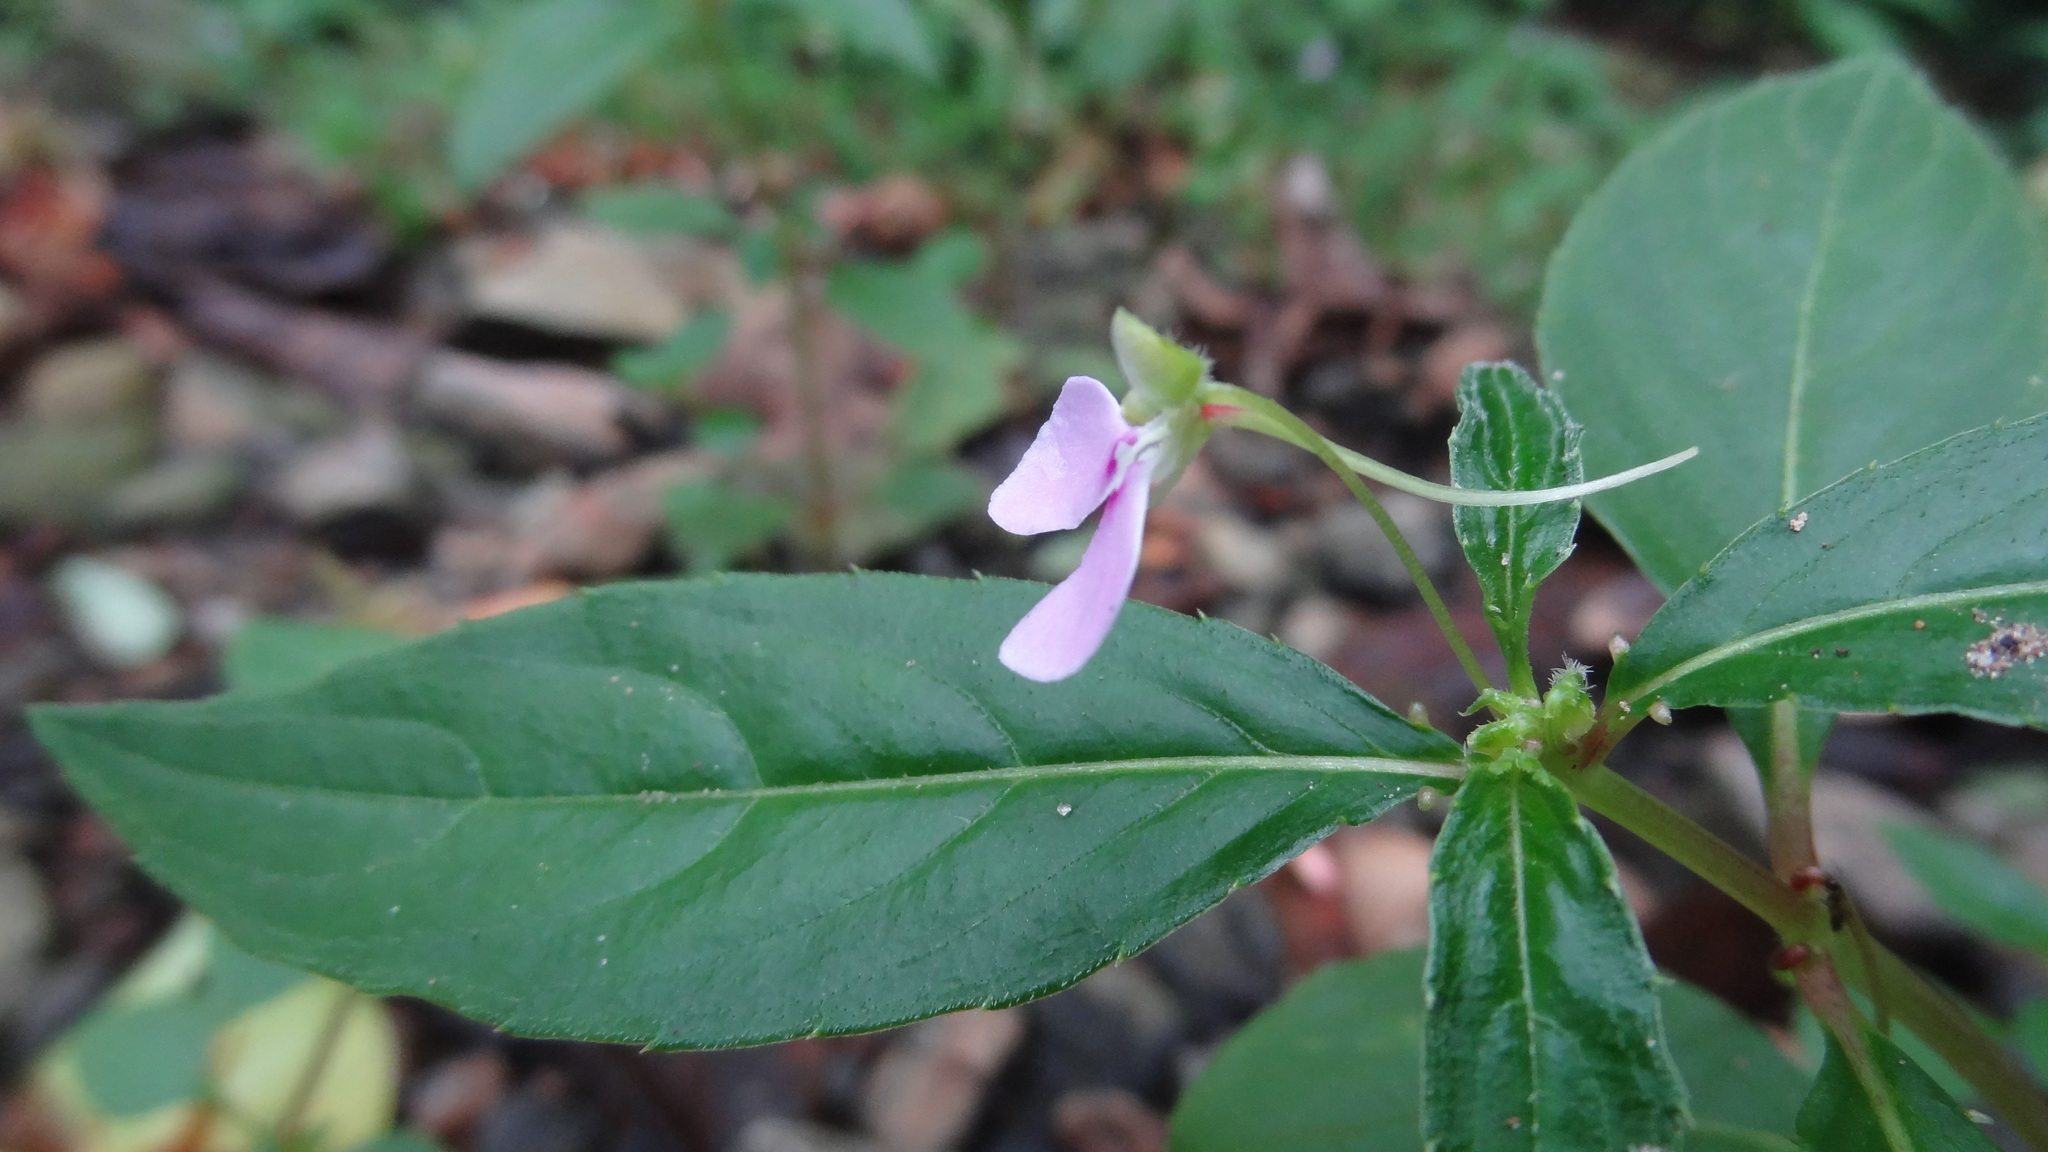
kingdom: Plantae
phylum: Tracheophyta
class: Magnoliopsida
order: Ericales
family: Balsaminaceae
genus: Impatiens
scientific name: Impatiens minor
